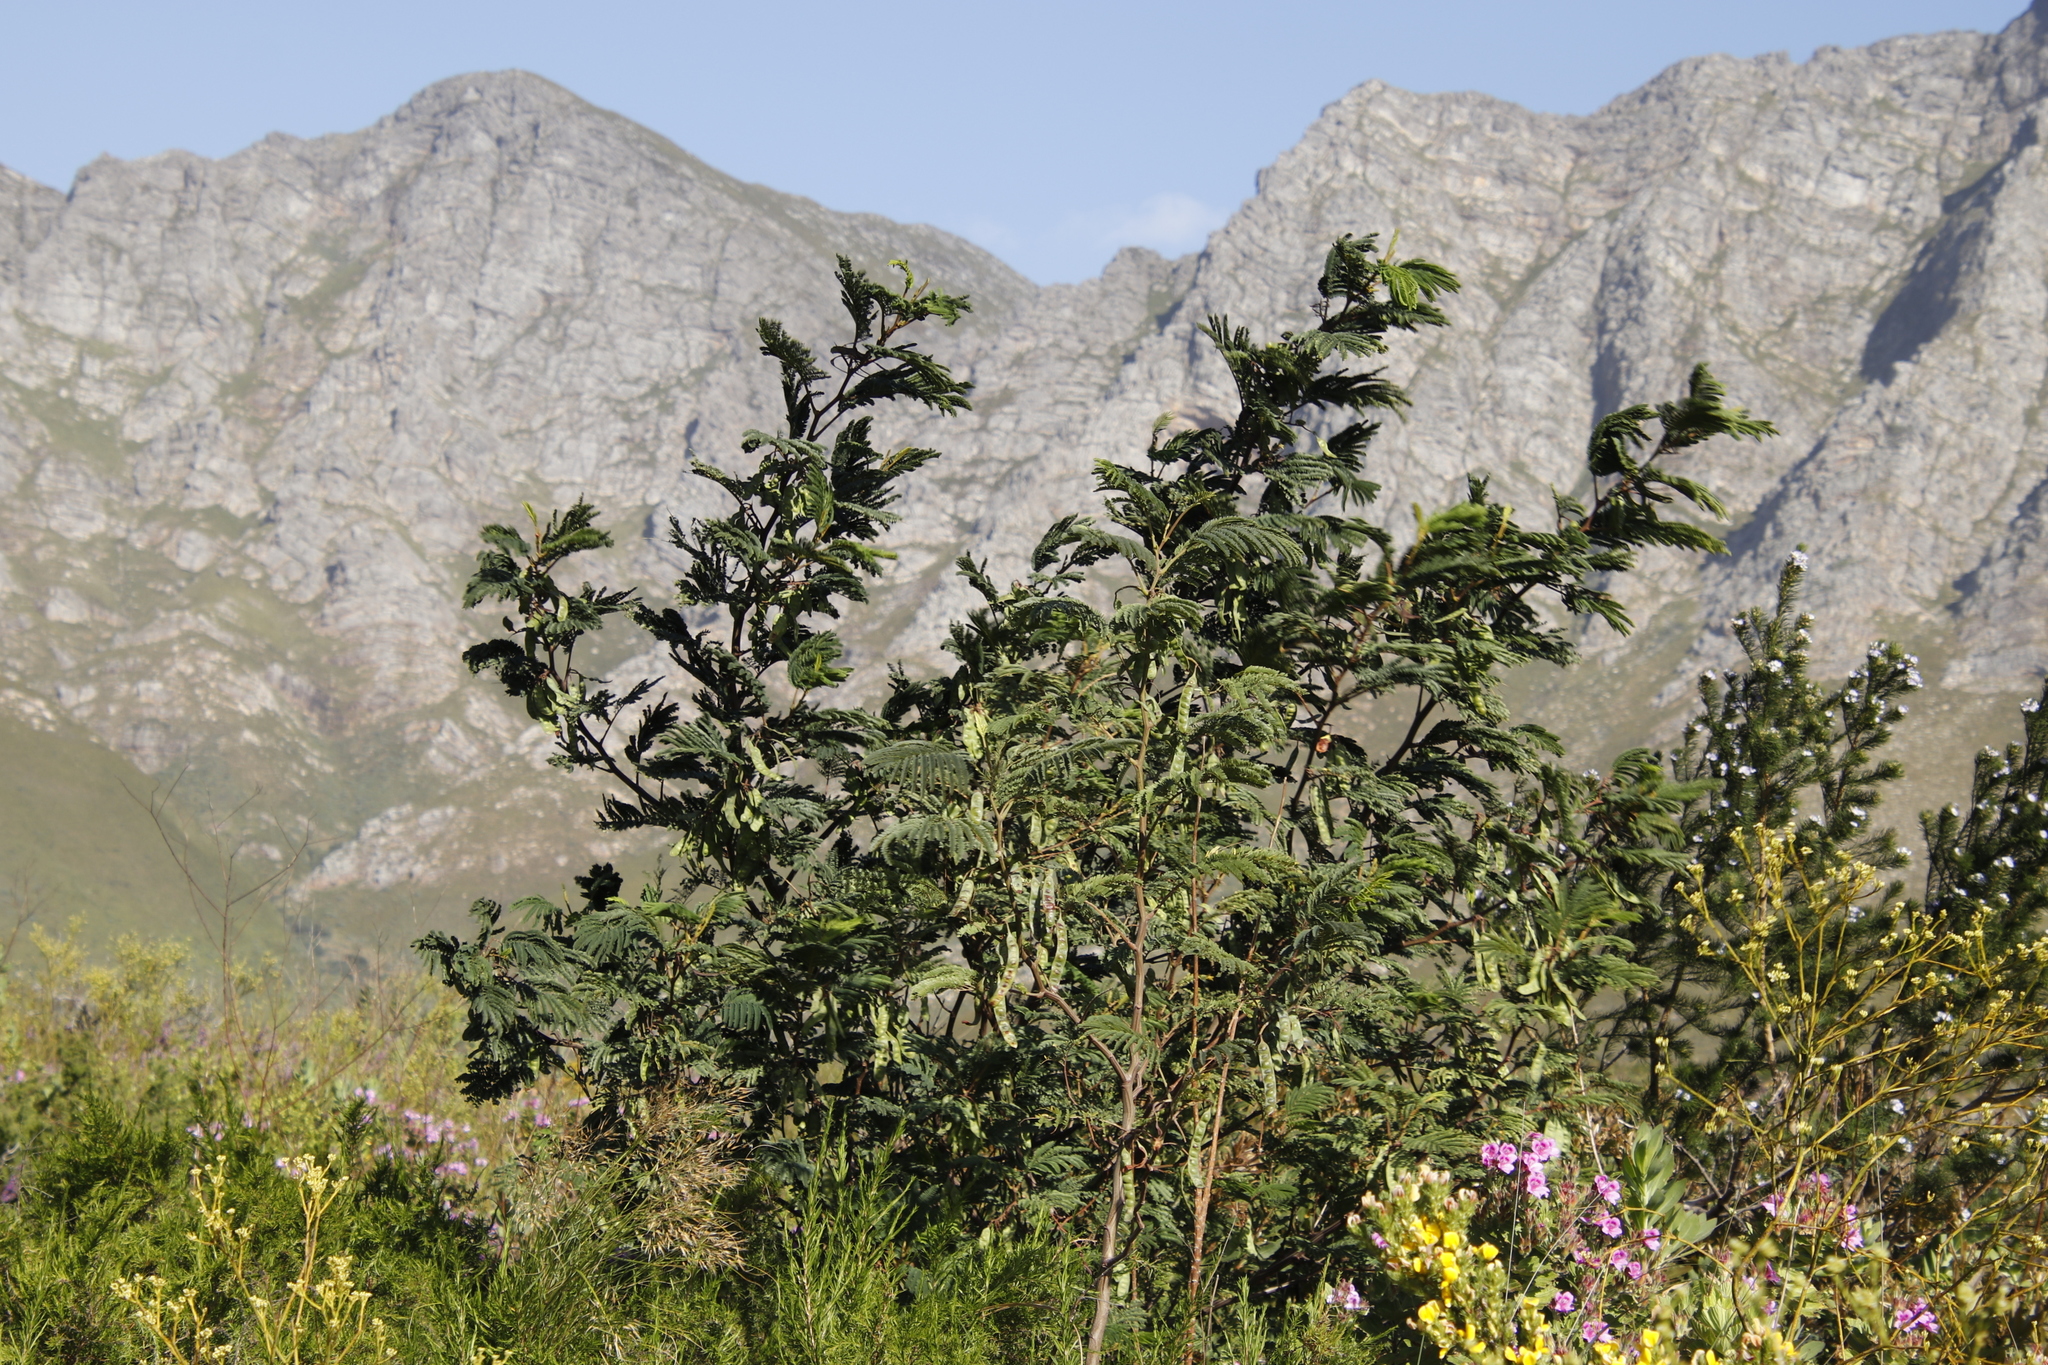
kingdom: Plantae
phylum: Tracheophyta
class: Magnoliopsida
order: Fabales
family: Fabaceae
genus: Paraserianthes
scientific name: Paraserianthes lophantha
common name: Plume albizia
